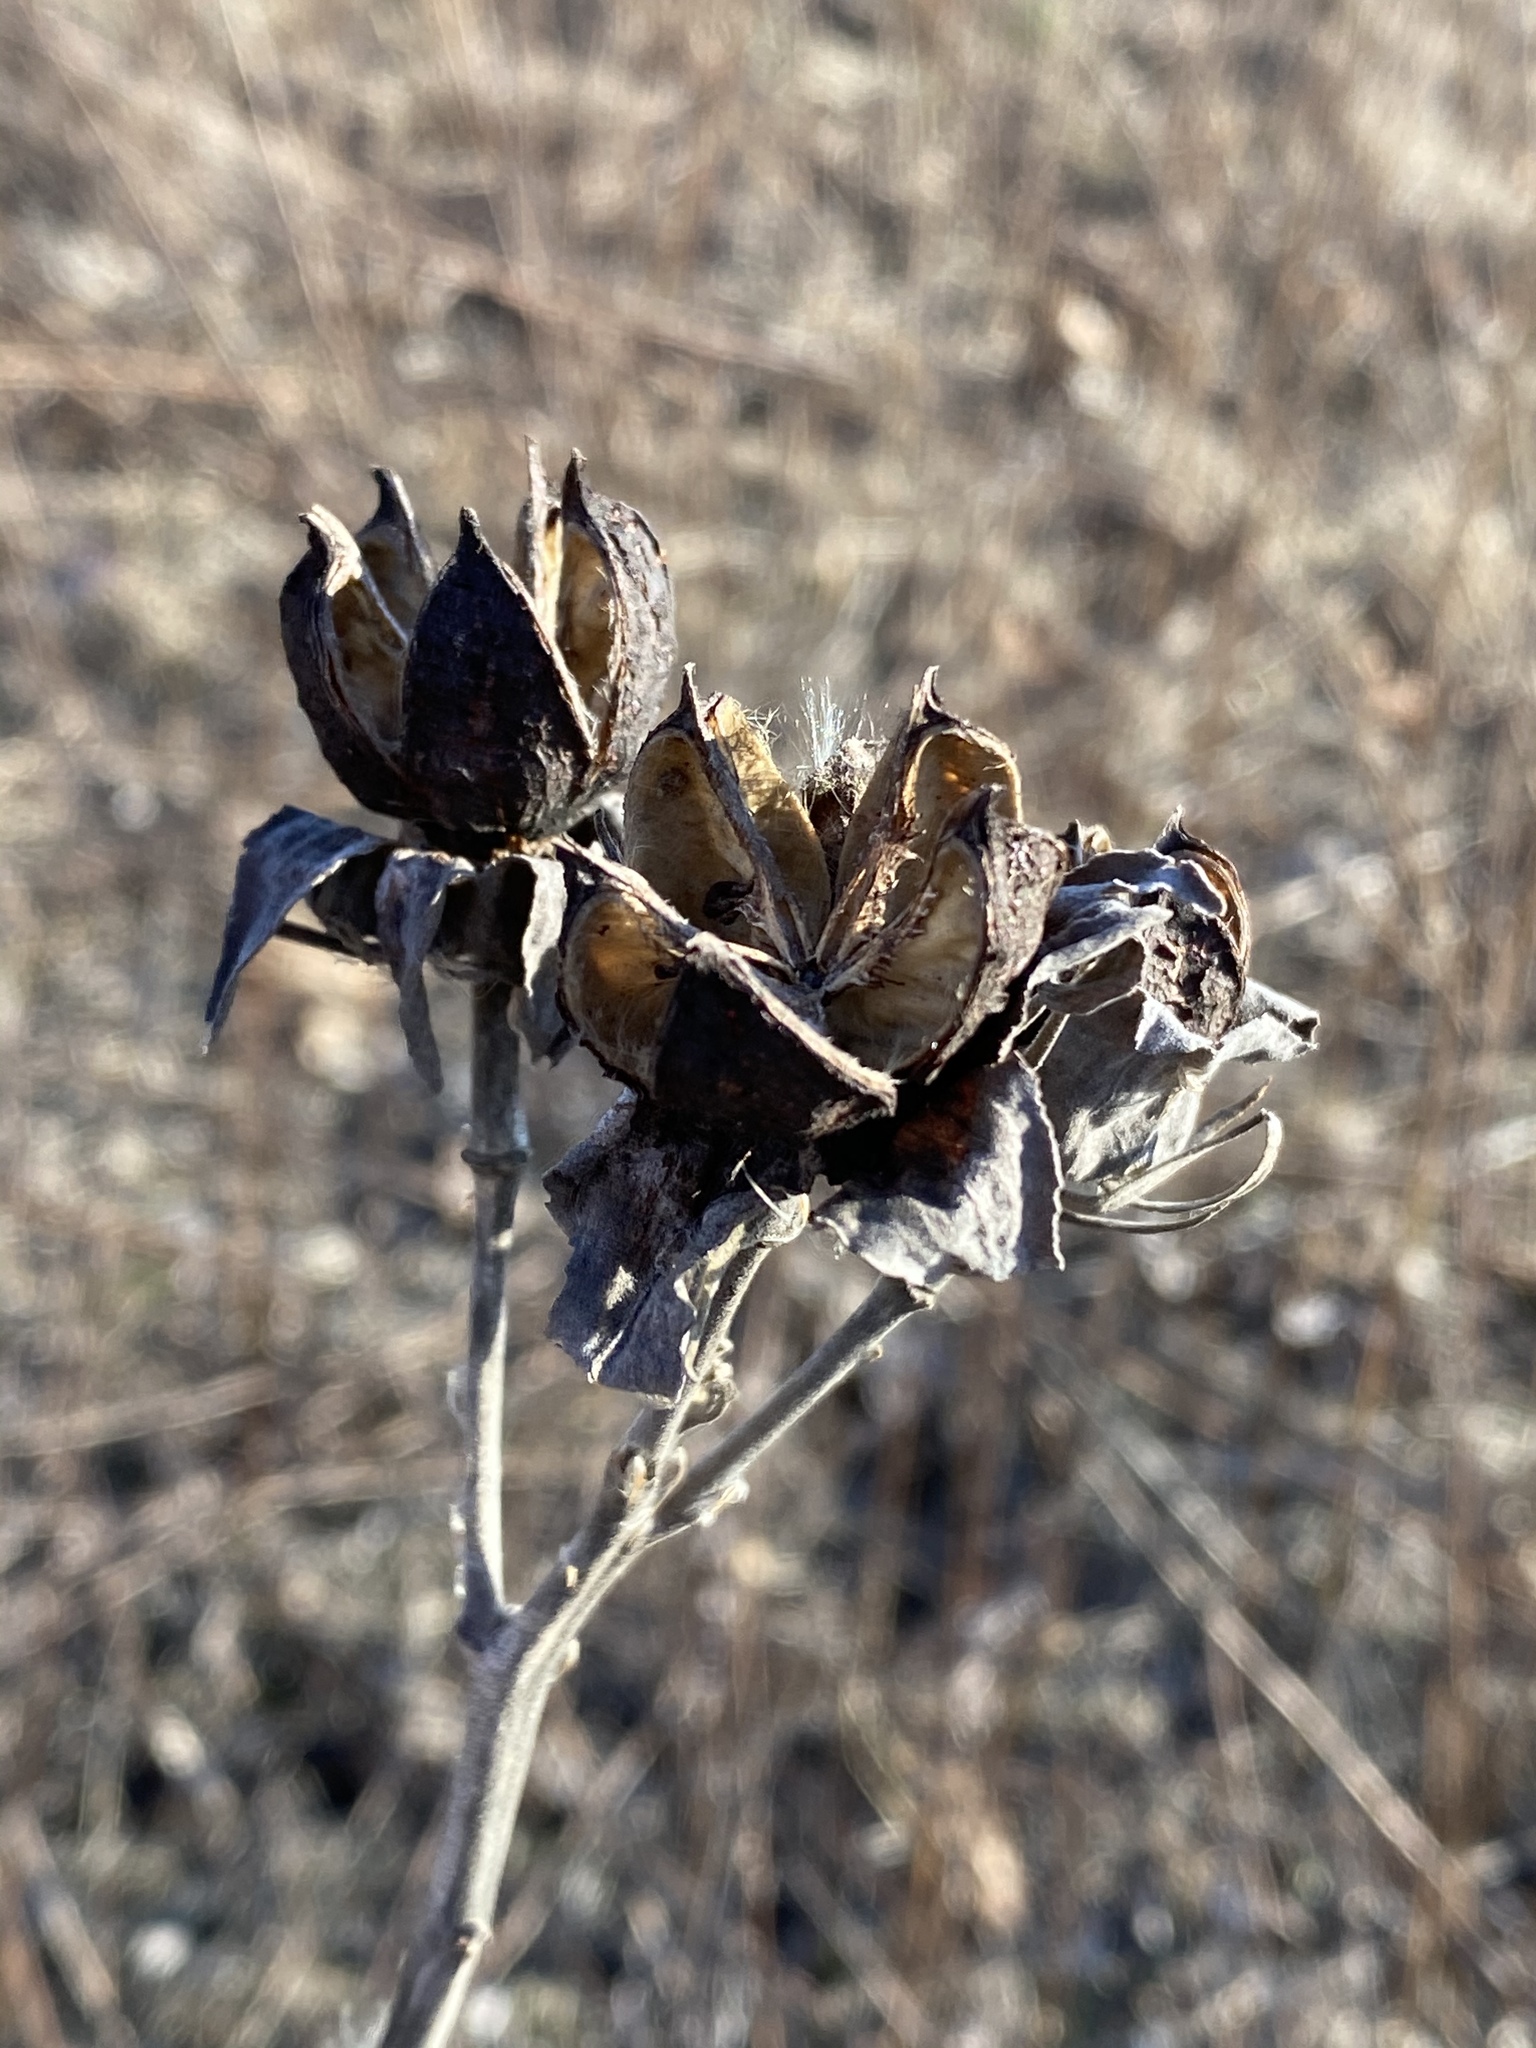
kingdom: Plantae
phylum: Tracheophyta
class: Magnoliopsida
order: Malvales
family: Malvaceae
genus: Hibiscus
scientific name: Hibiscus moscheutos
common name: Common rose-mallow
